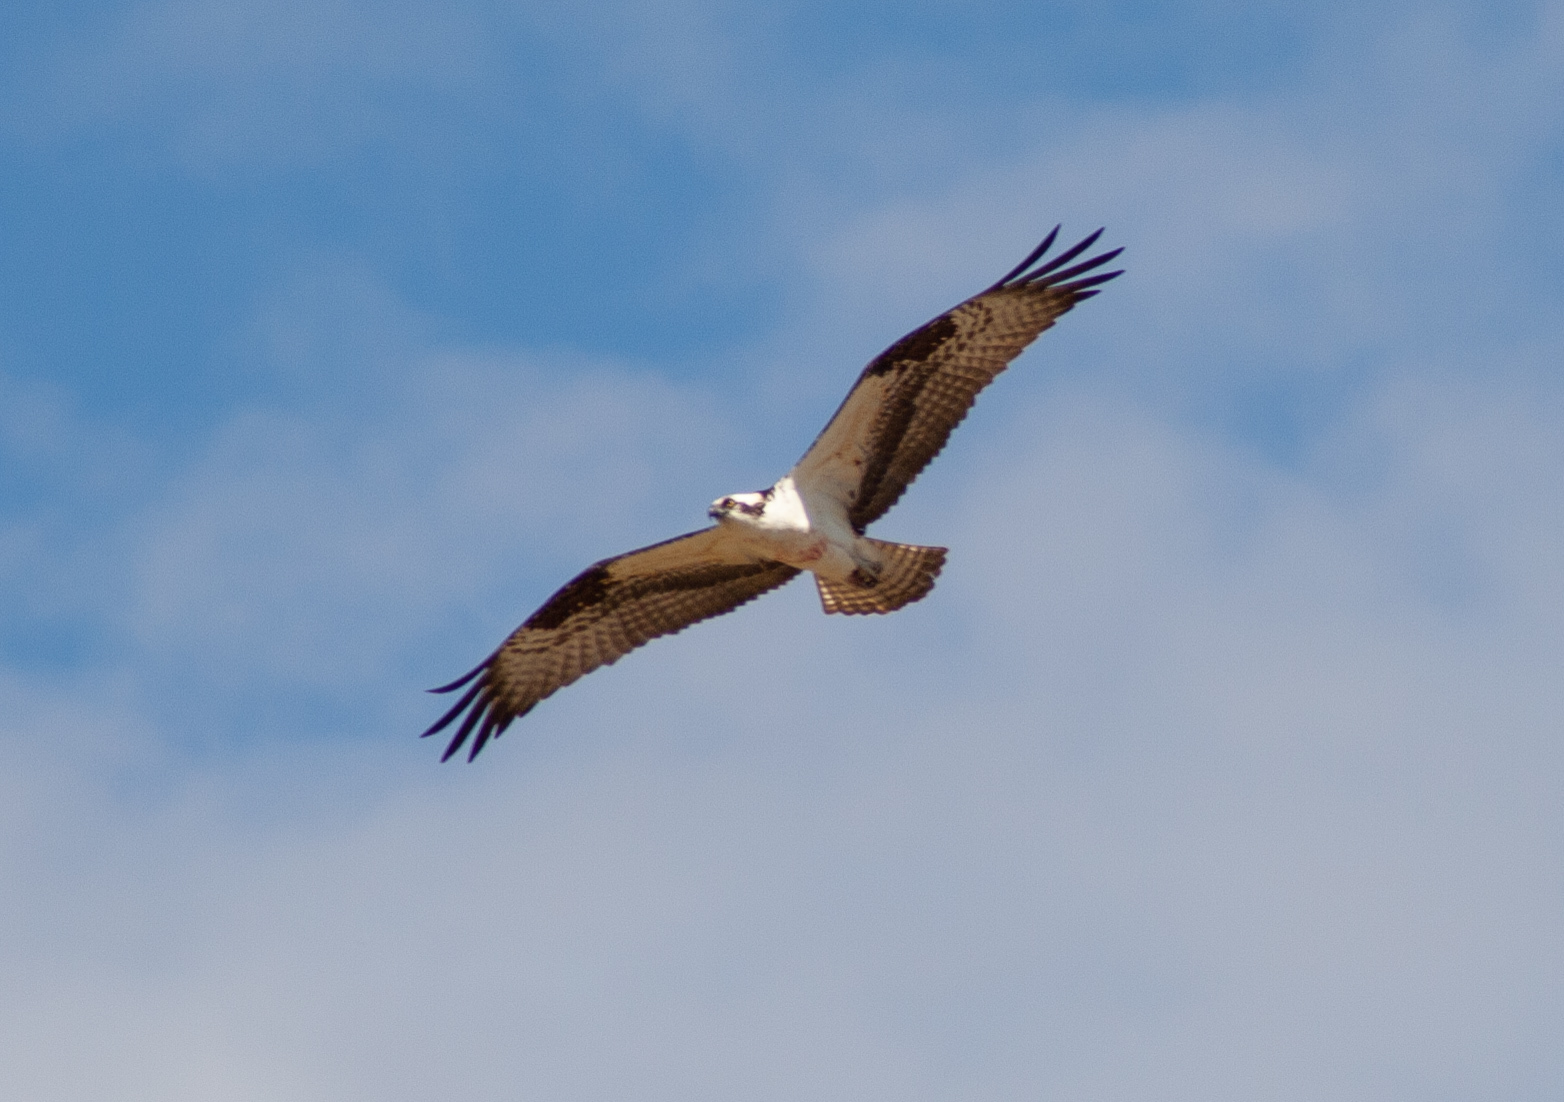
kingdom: Animalia
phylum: Chordata
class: Aves
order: Accipitriformes
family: Pandionidae
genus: Pandion
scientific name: Pandion haliaetus
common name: Osprey
